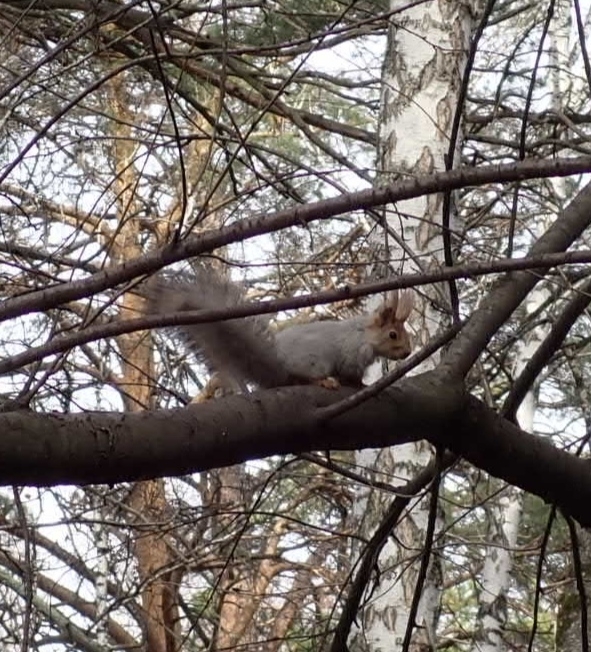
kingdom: Animalia
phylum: Chordata
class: Mammalia
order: Rodentia
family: Sciuridae
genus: Sciurus
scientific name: Sciurus vulgaris
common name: Eurasian red squirrel
